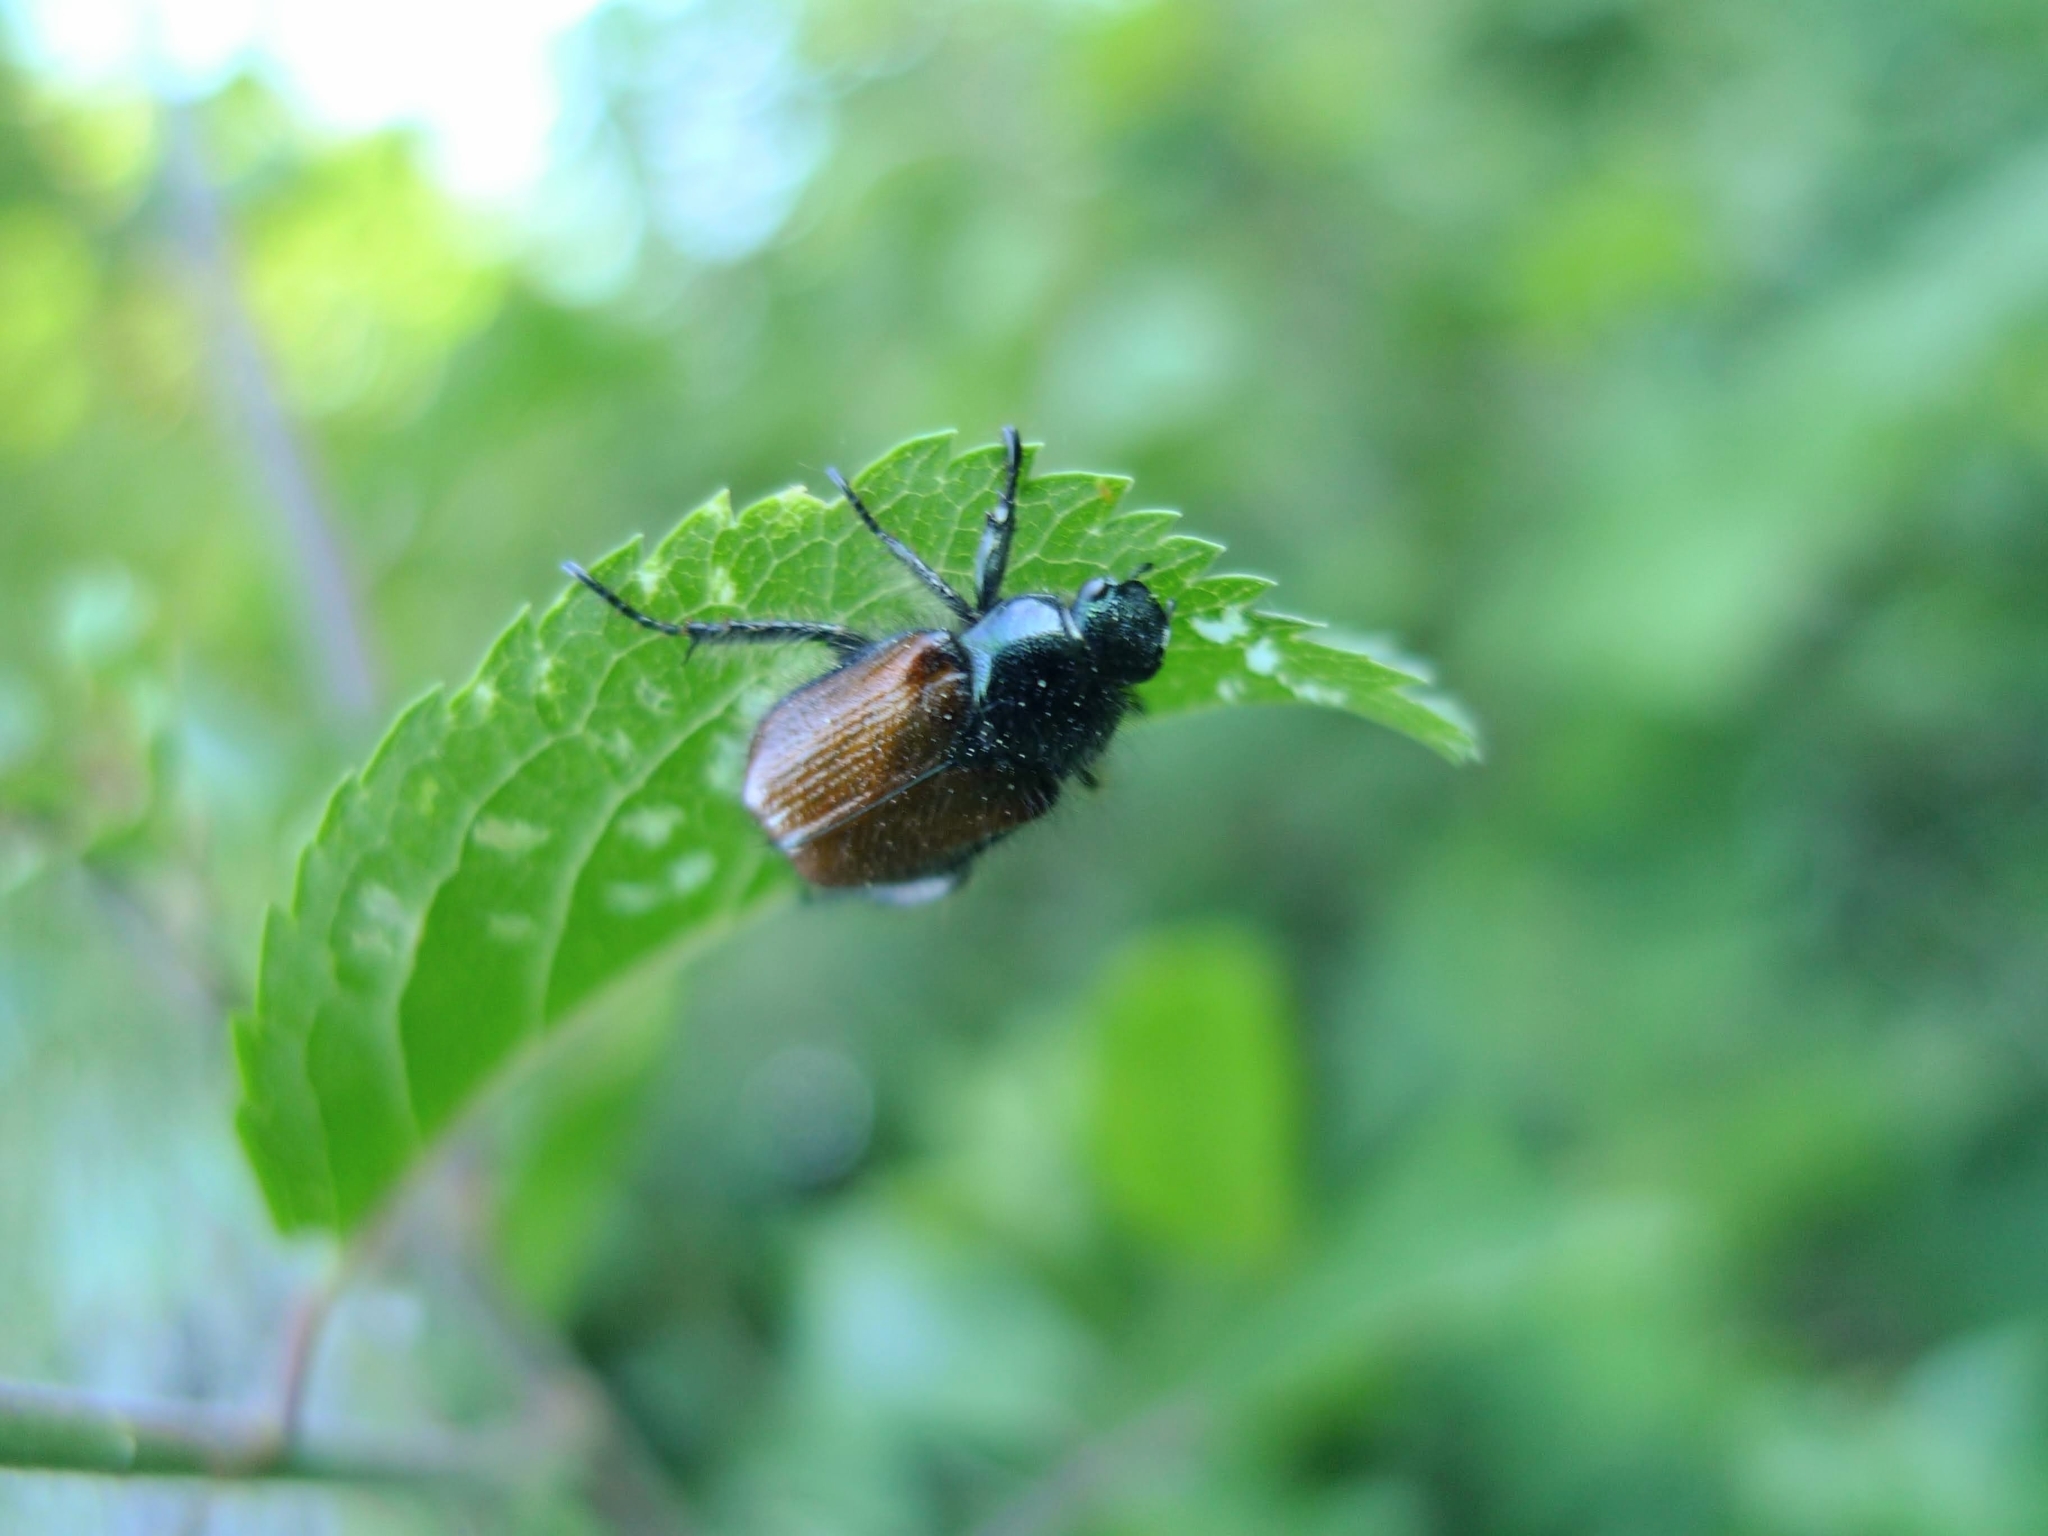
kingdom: Animalia
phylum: Arthropoda
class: Insecta
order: Coleoptera
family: Scarabaeidae
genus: Phyllopertha
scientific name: Phyllopertha horticola
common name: Garden chafer
